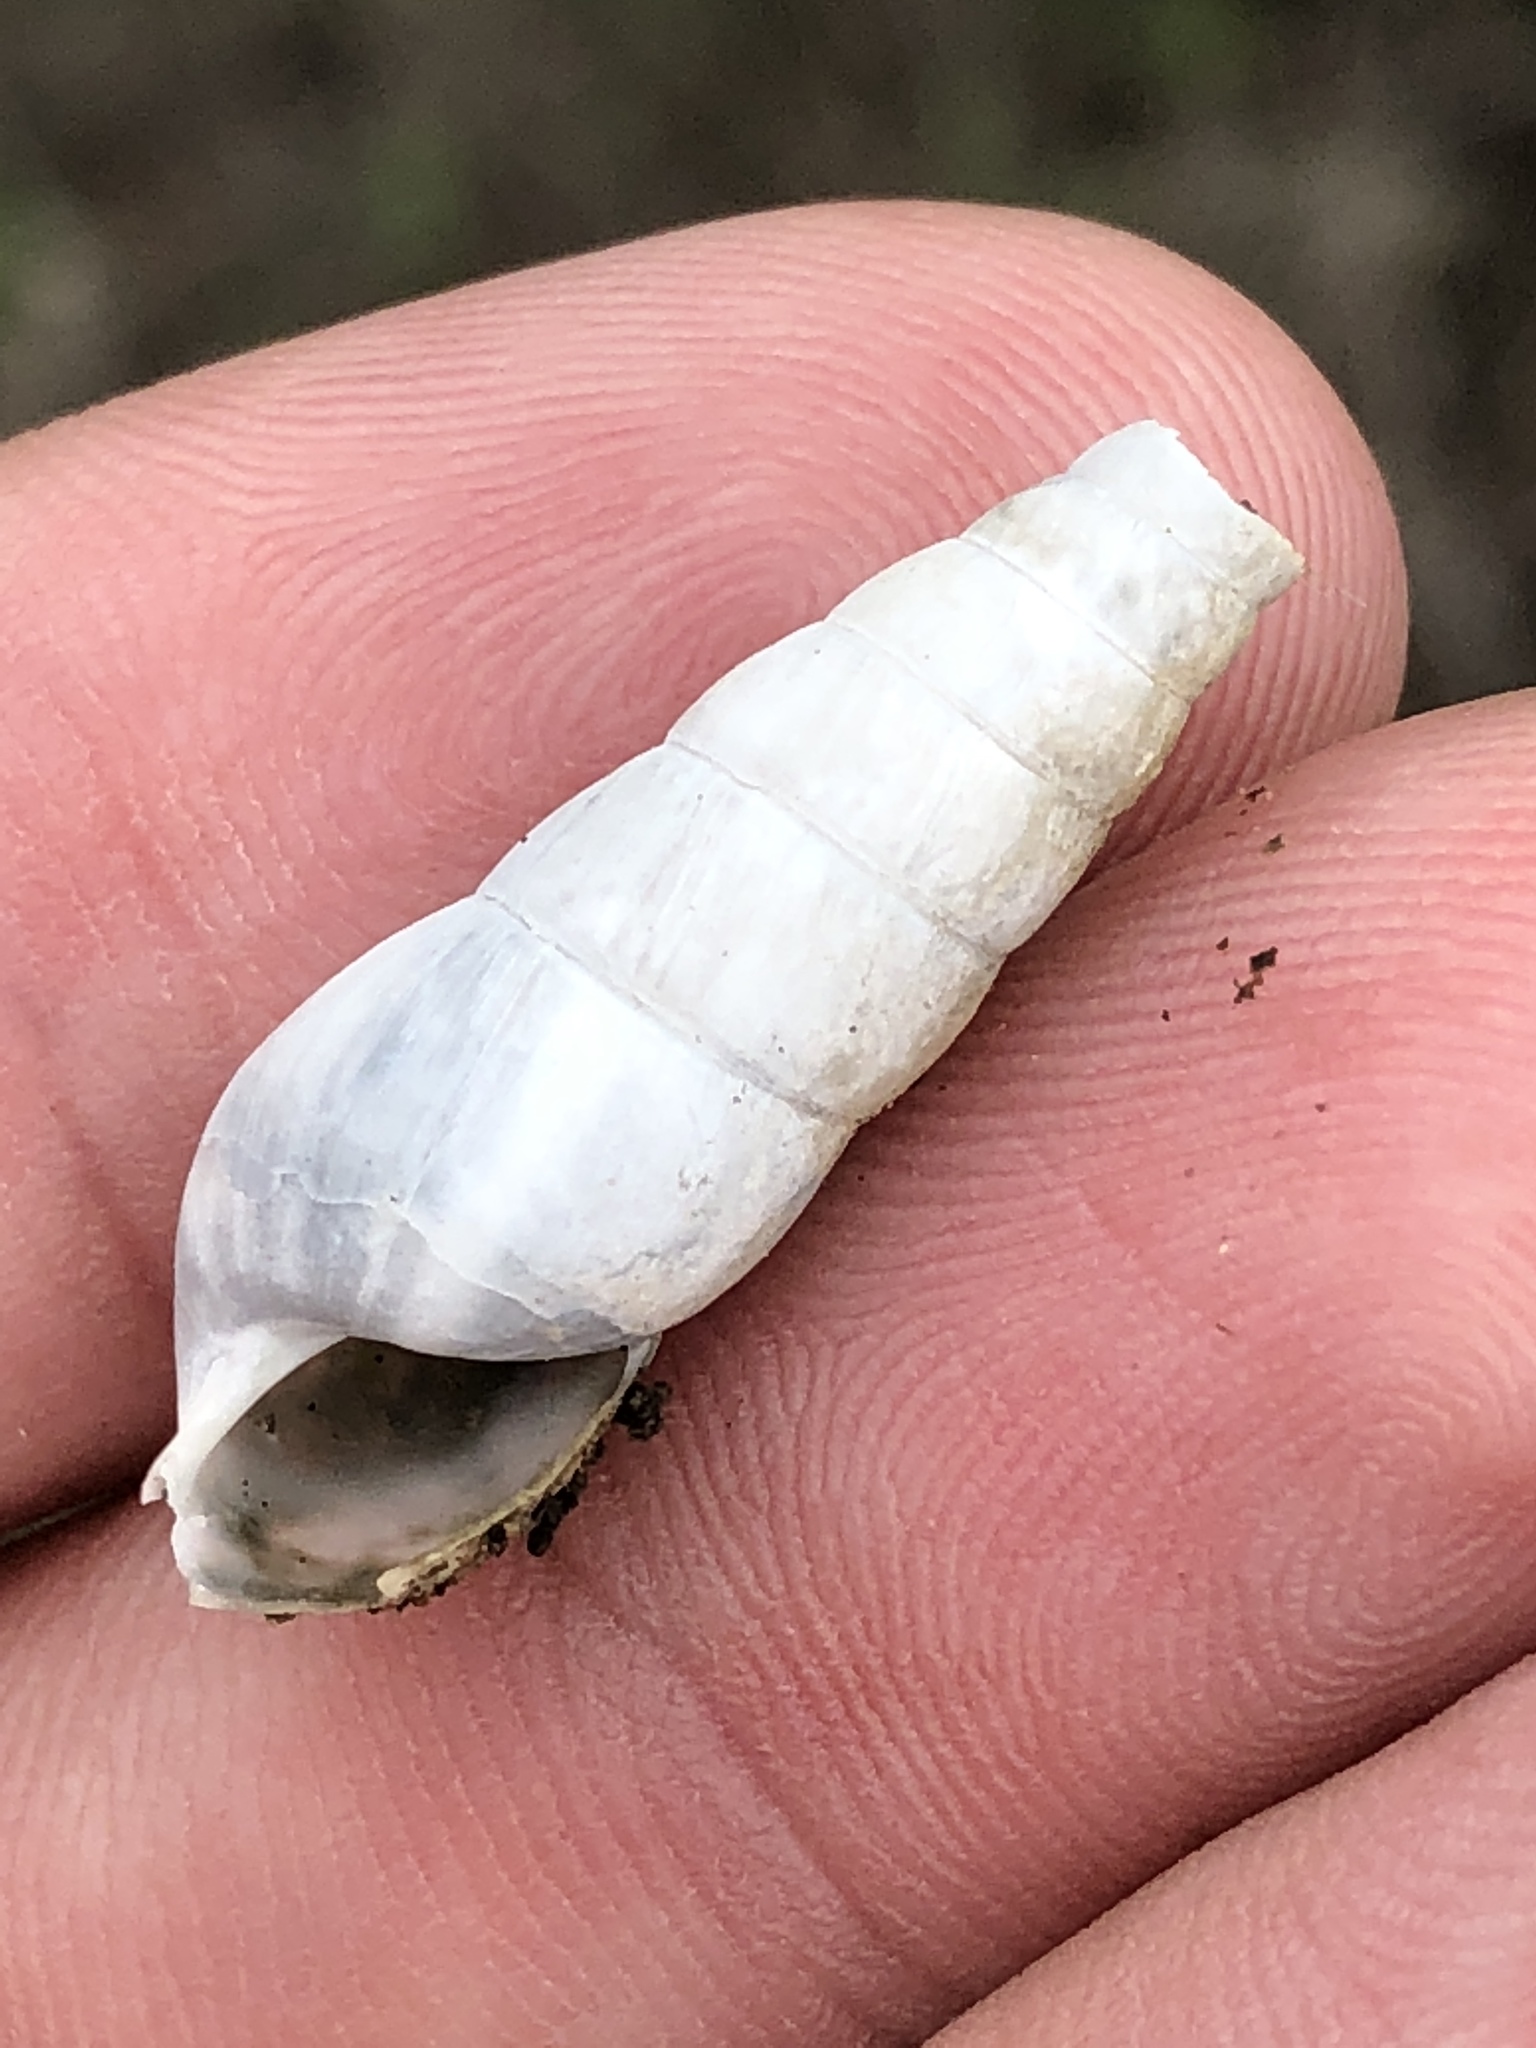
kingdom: Animalia
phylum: Mollusca
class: Gastropoda
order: Stylommatophora
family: Achatinidae
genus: Rumina
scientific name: Rumina decollata
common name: Decollate snail
